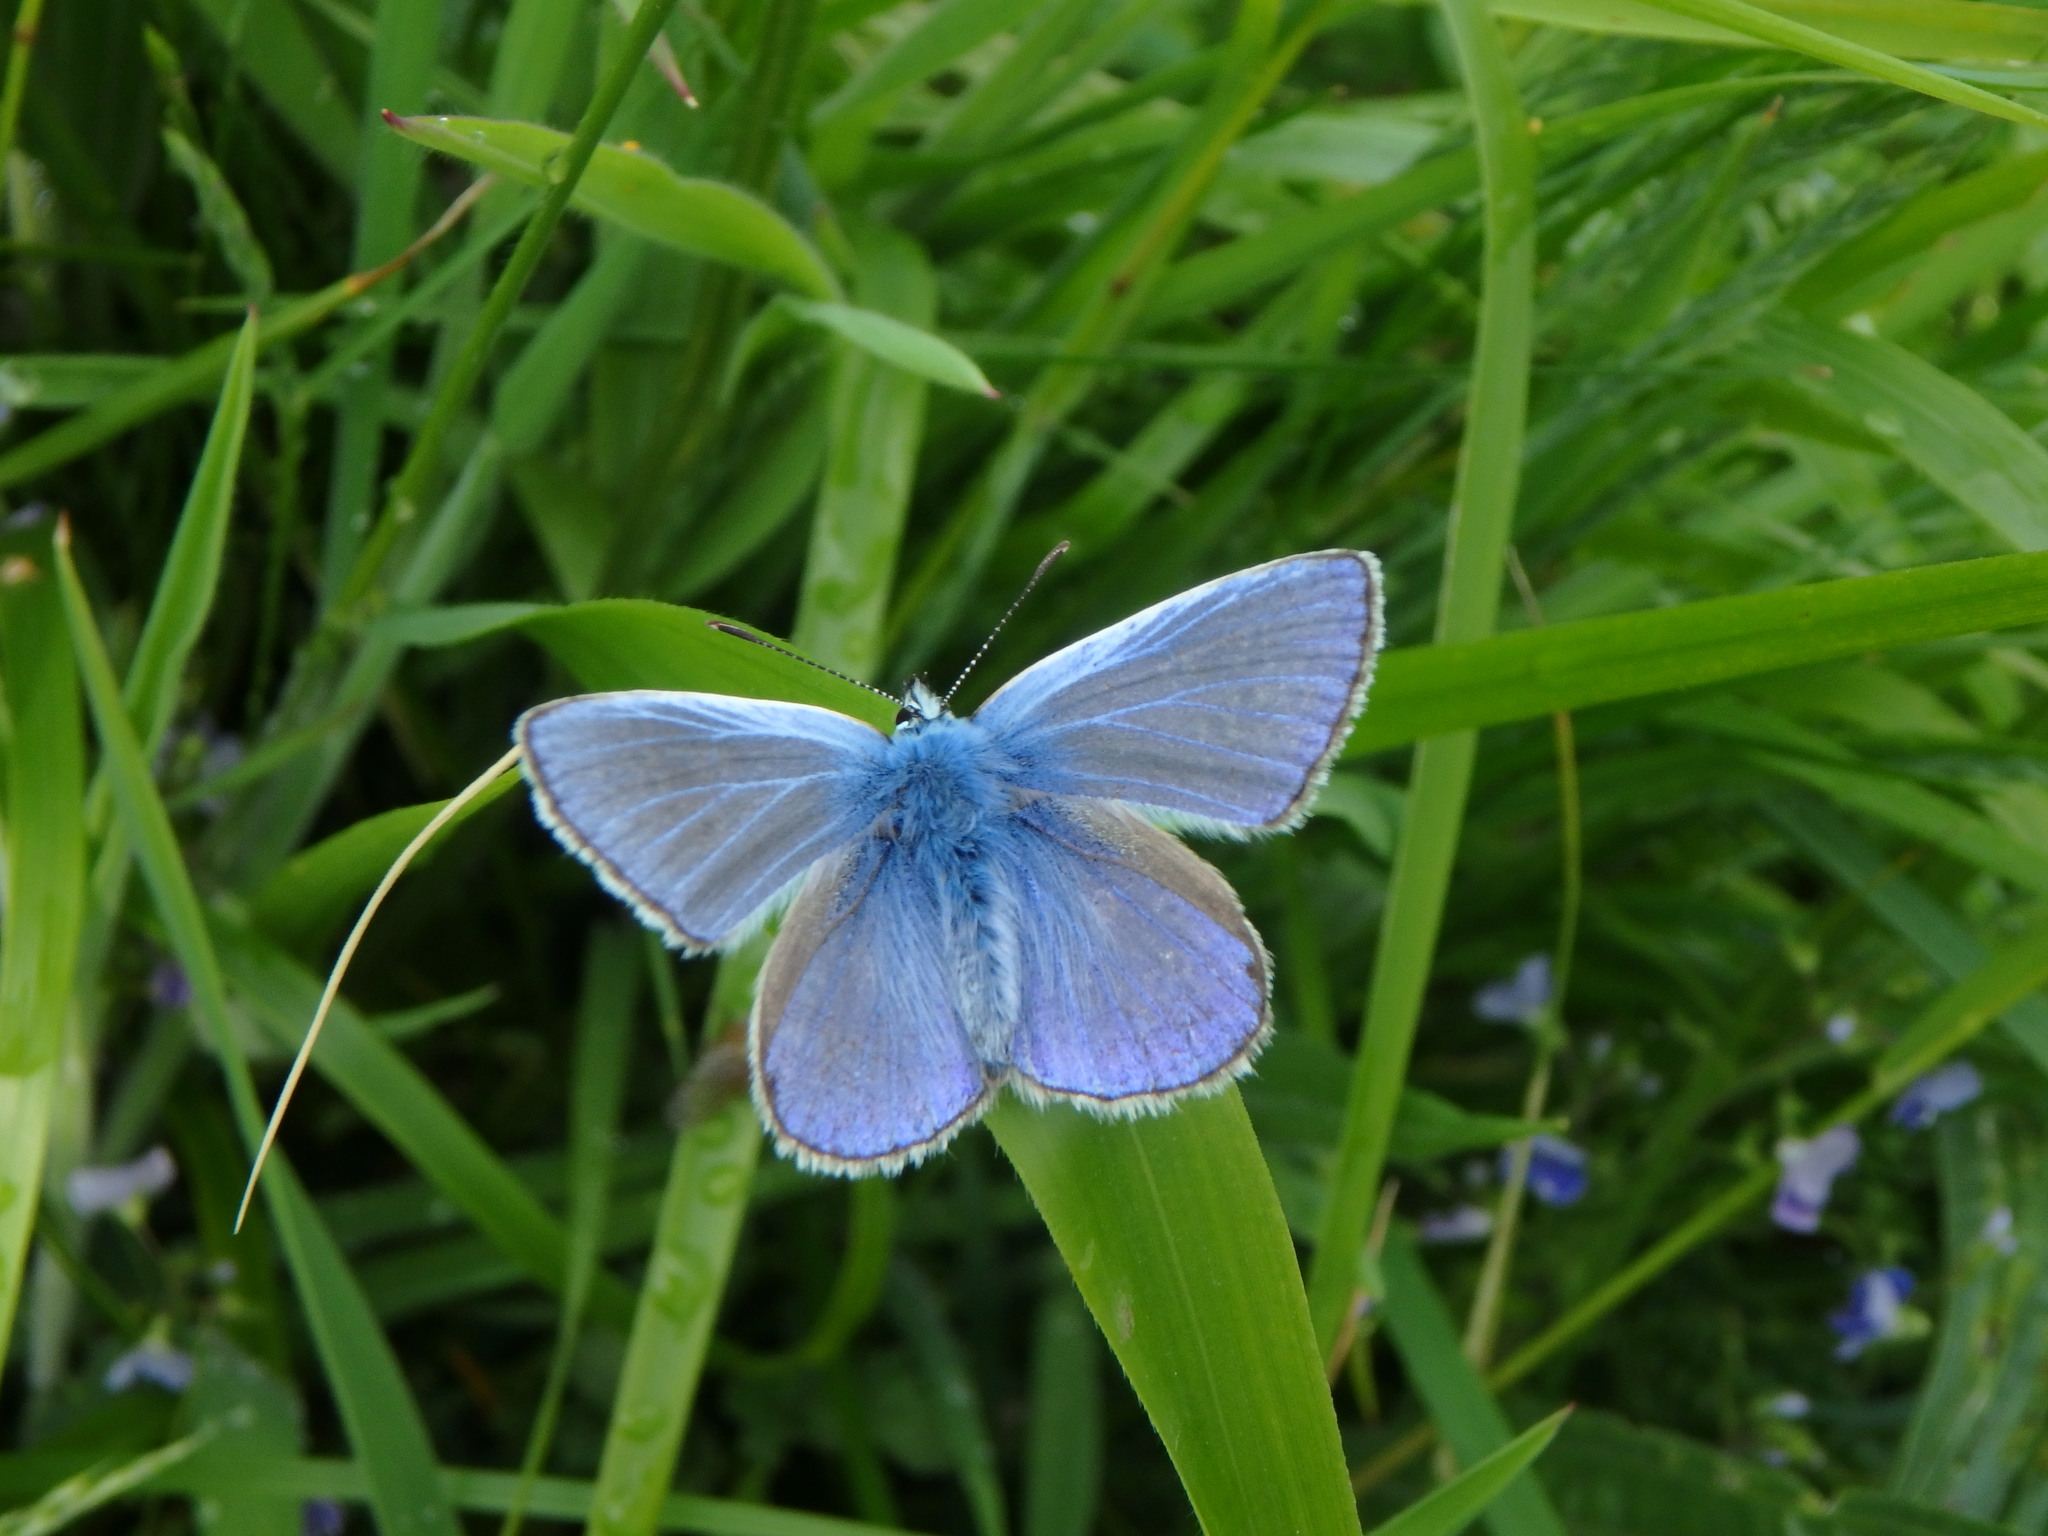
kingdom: Animalia
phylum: Arthropoda
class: Insecta
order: Lepidoptera
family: Lycaenidae
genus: Polyommatus
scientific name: Polyommatus icarus
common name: Common blue
